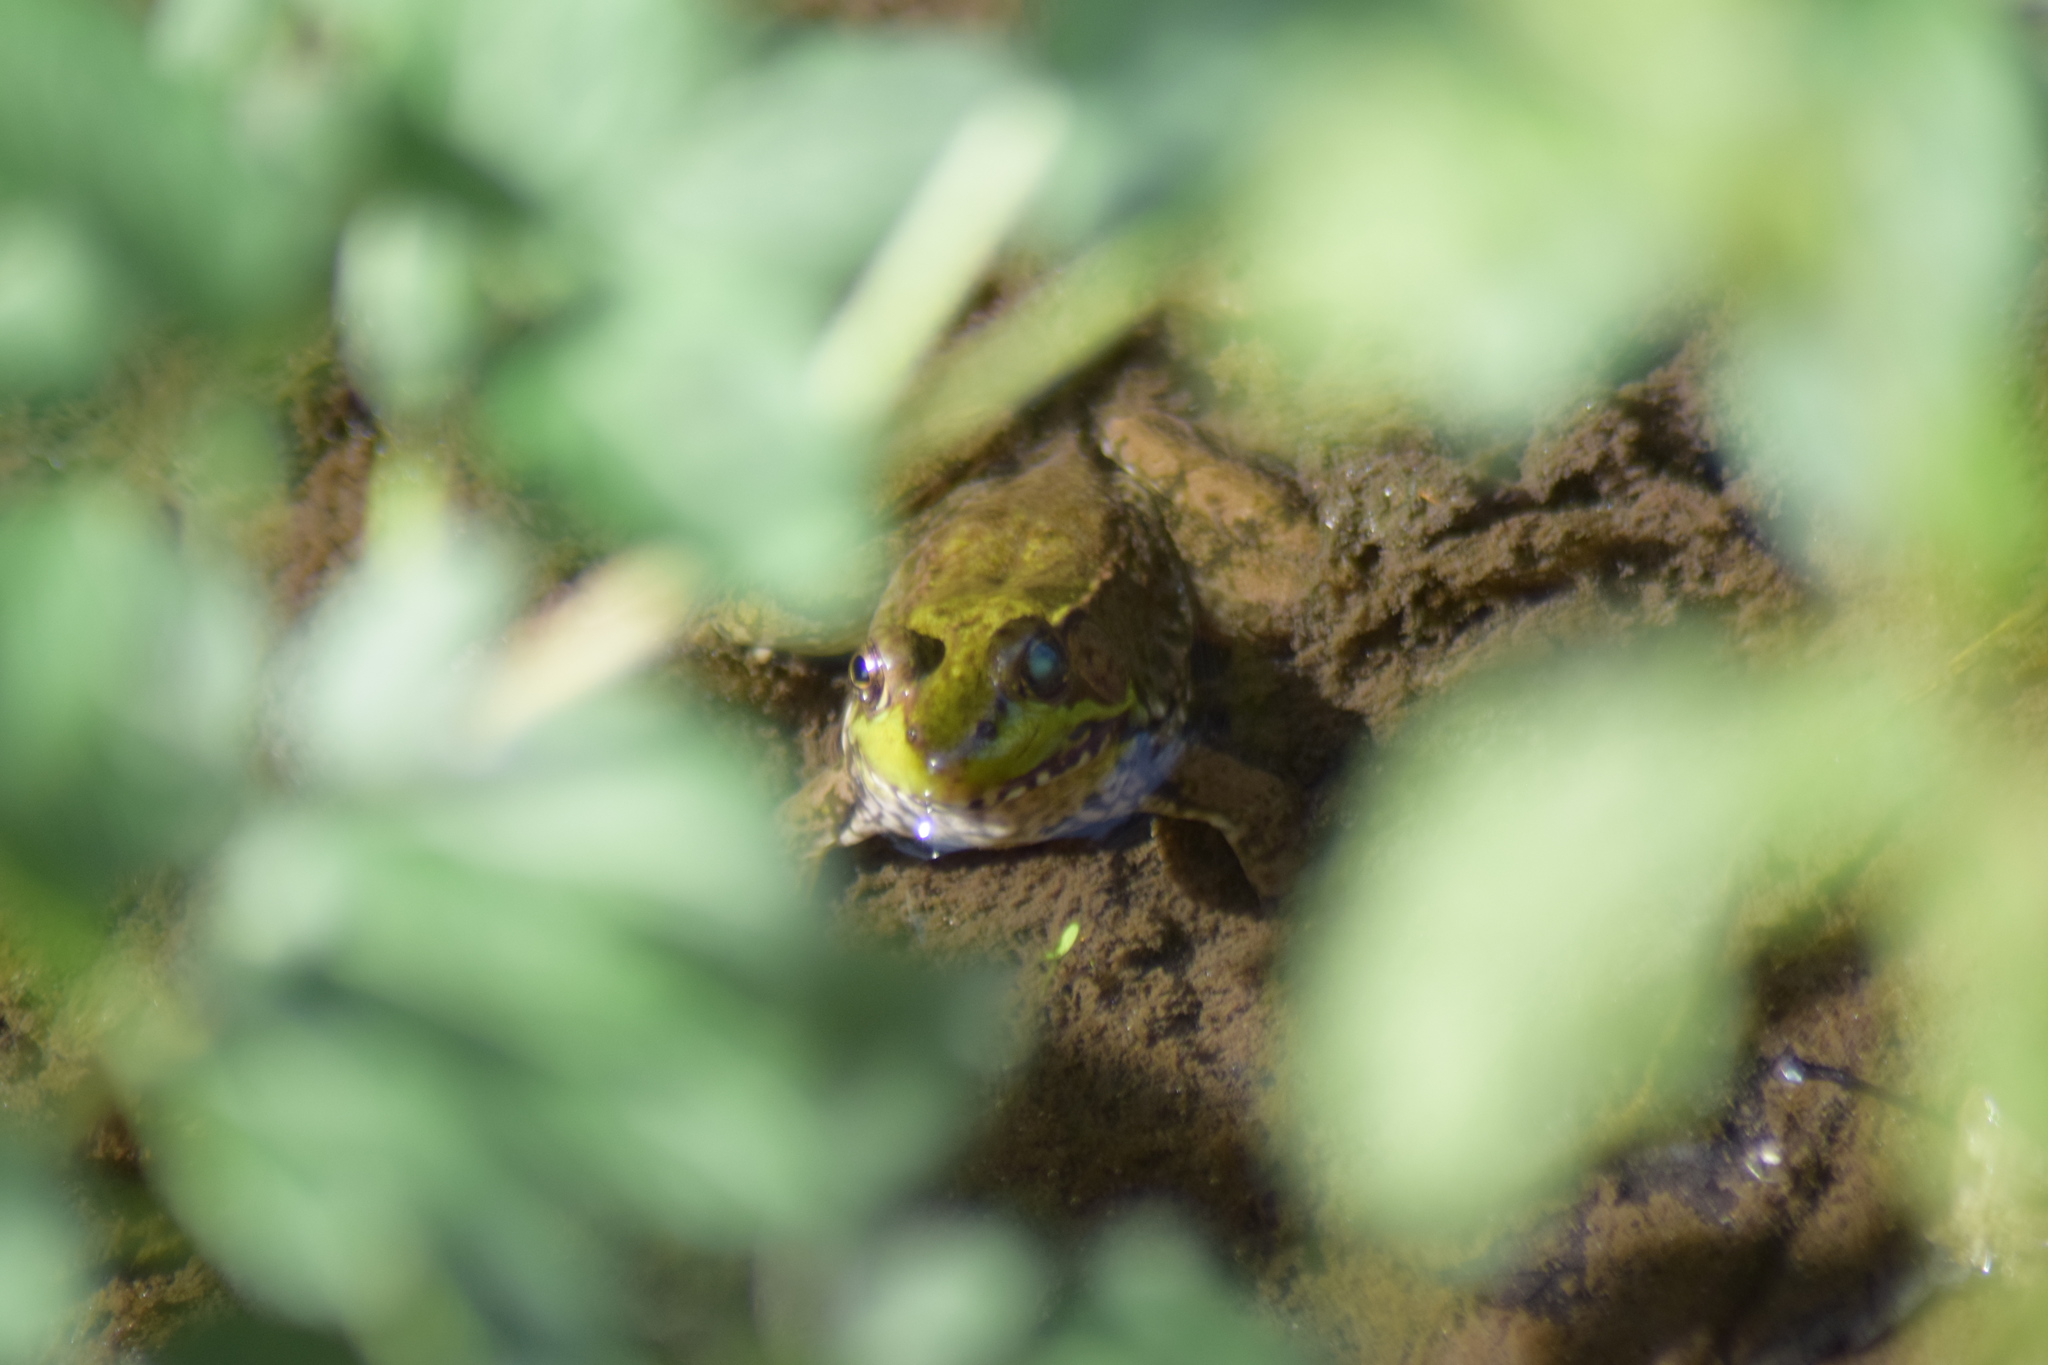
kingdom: Animalia
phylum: Chordata
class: Amphibia
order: Anura
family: Ranidae
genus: Lithobates
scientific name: Lithobates clamitans
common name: Green frog
